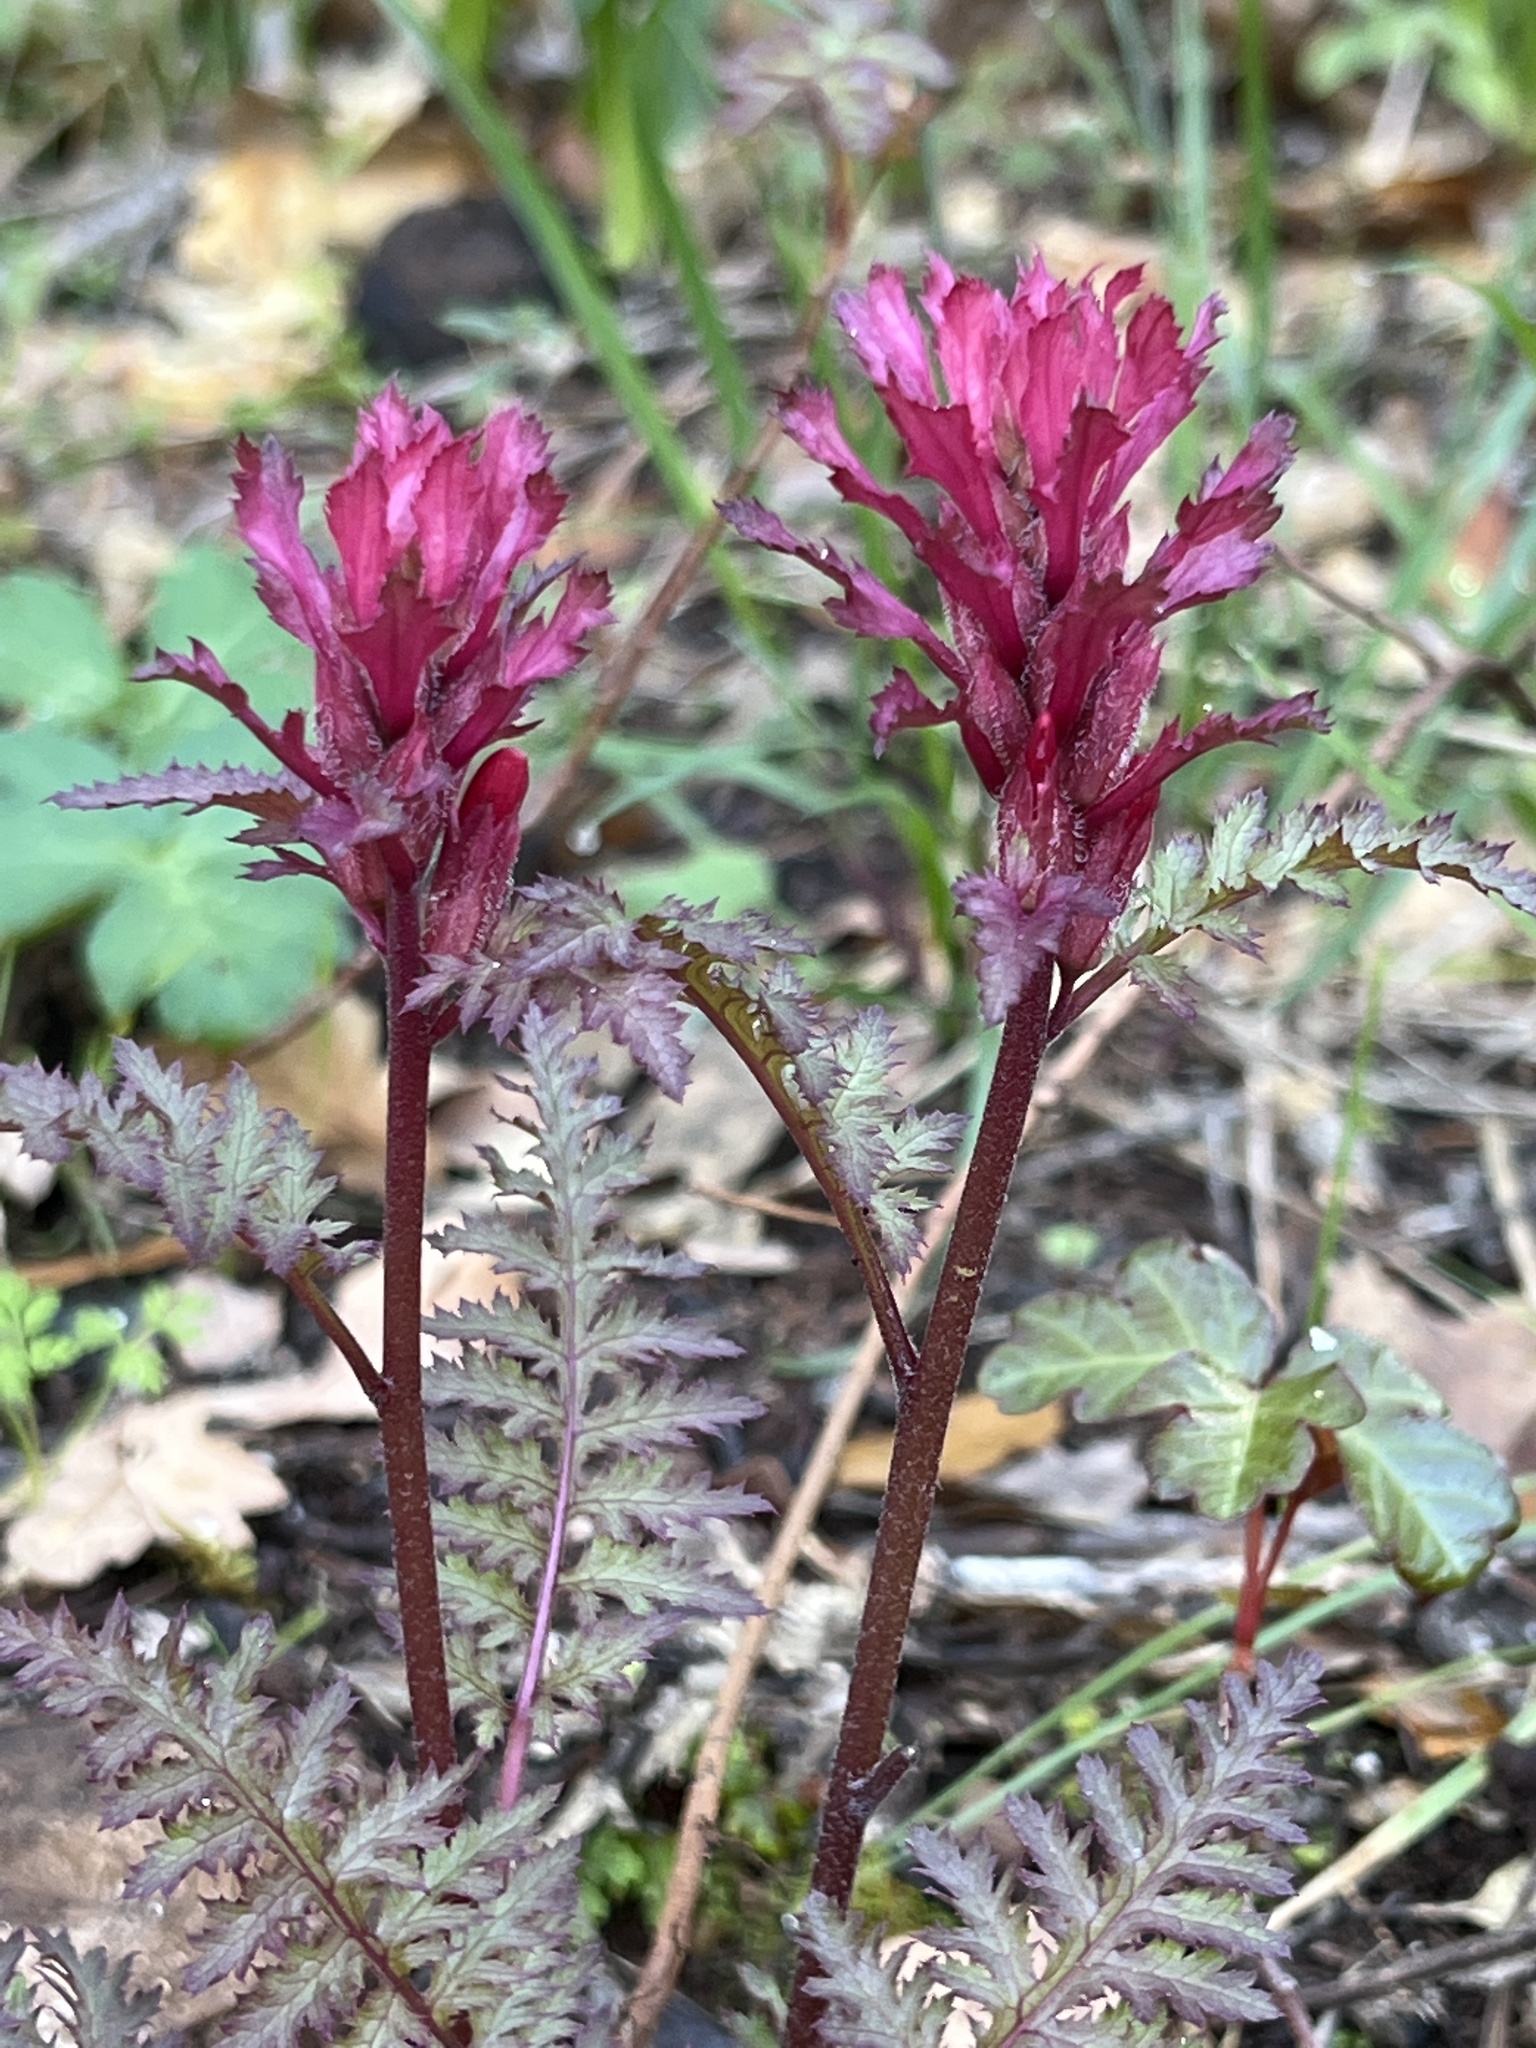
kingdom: Plantae
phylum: Tracheophyta
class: Magnoliopsida
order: Lamiales
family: Orobanchaceae
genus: Pedicularis
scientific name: Pedicularis densiflora
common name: Indian warrior
